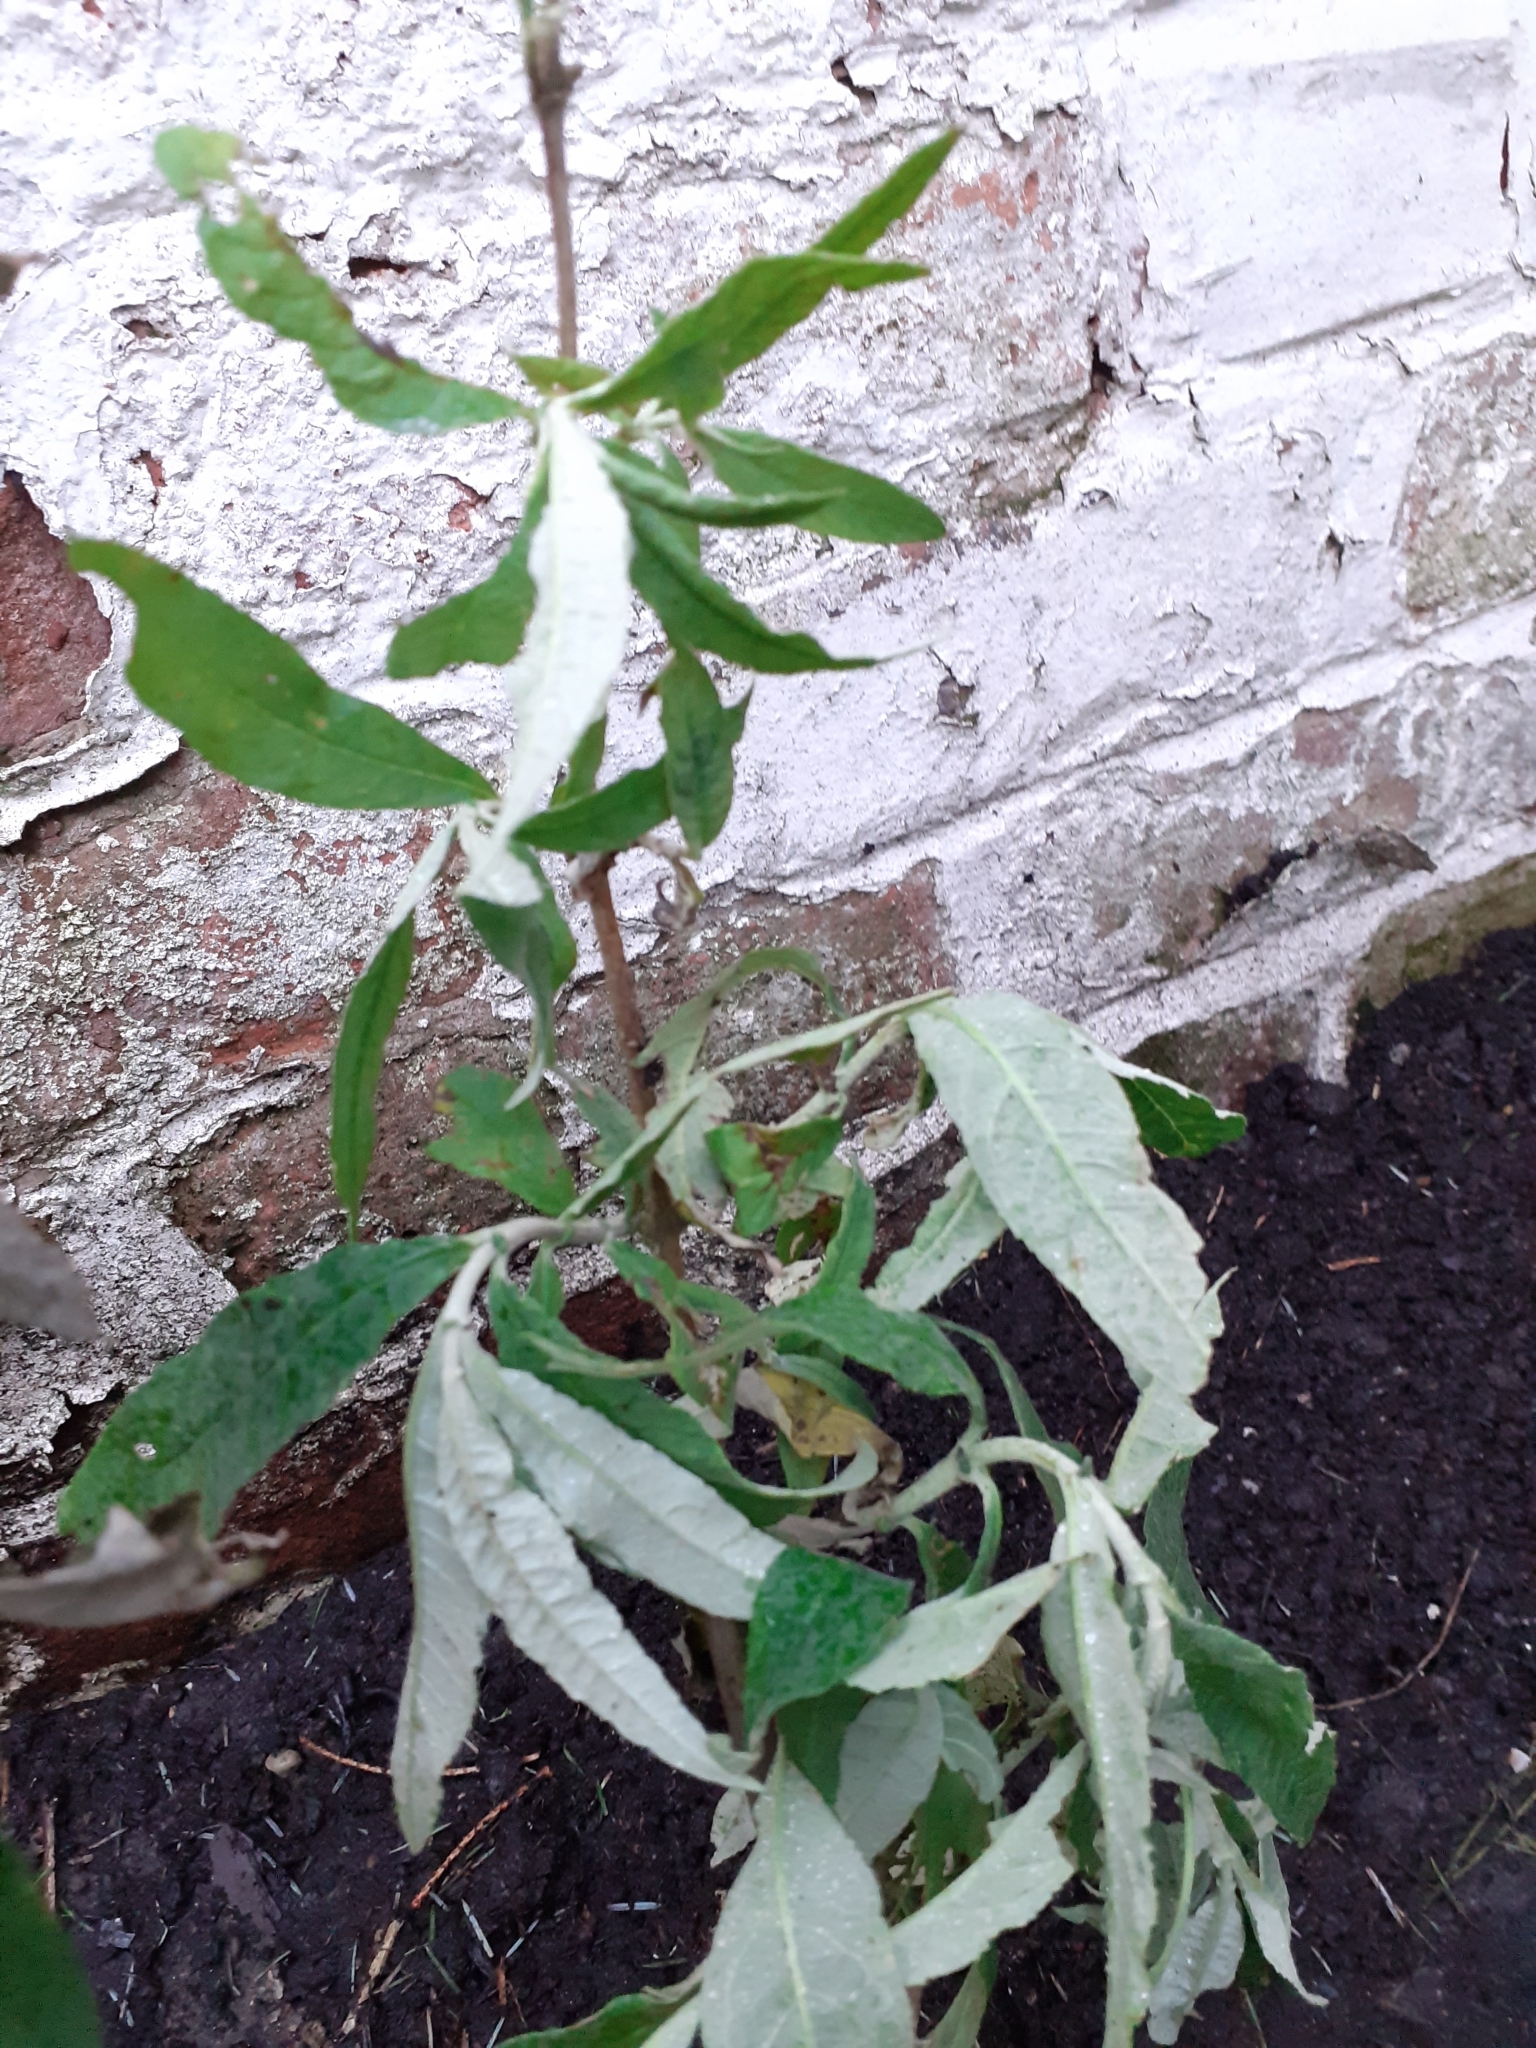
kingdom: Plantae
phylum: Tracheophyta
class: Magnoliopsida
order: Lamiales
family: Scrophulariaceae
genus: Buddleja
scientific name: Buddleja davidii
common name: Butterfly-bush
